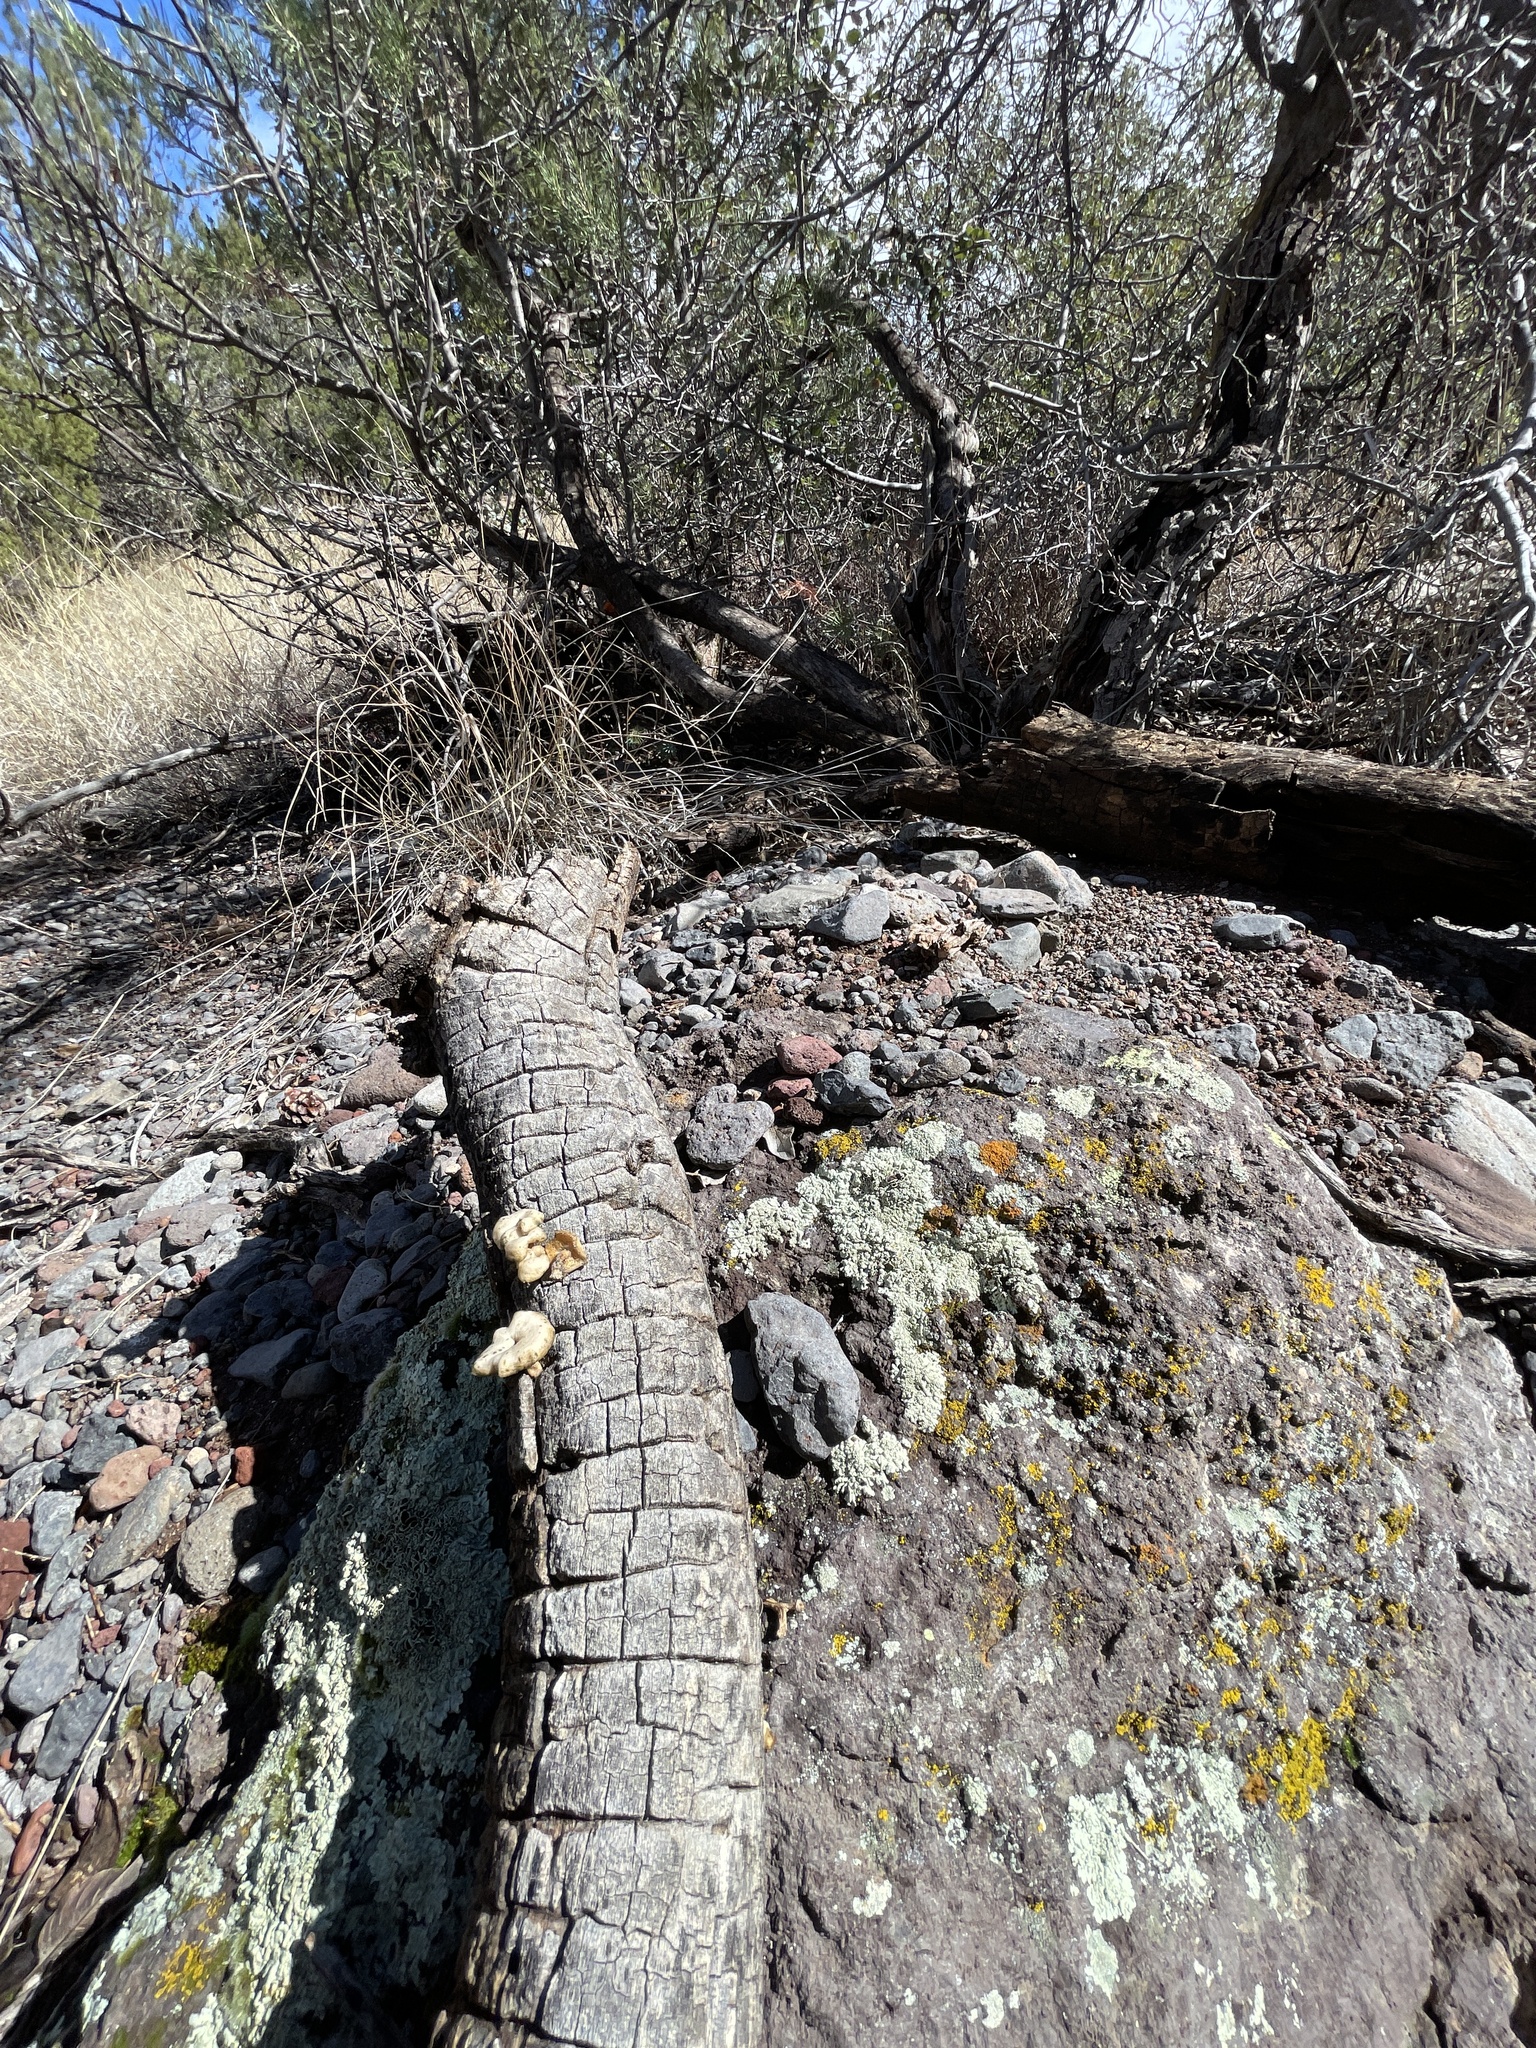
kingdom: Fungi
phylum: Basidiomycota
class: Agaricomycetes
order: Polyporales
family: Polyporaceae
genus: Lentinus
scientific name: Lentinus arcularius
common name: Spring polypore
